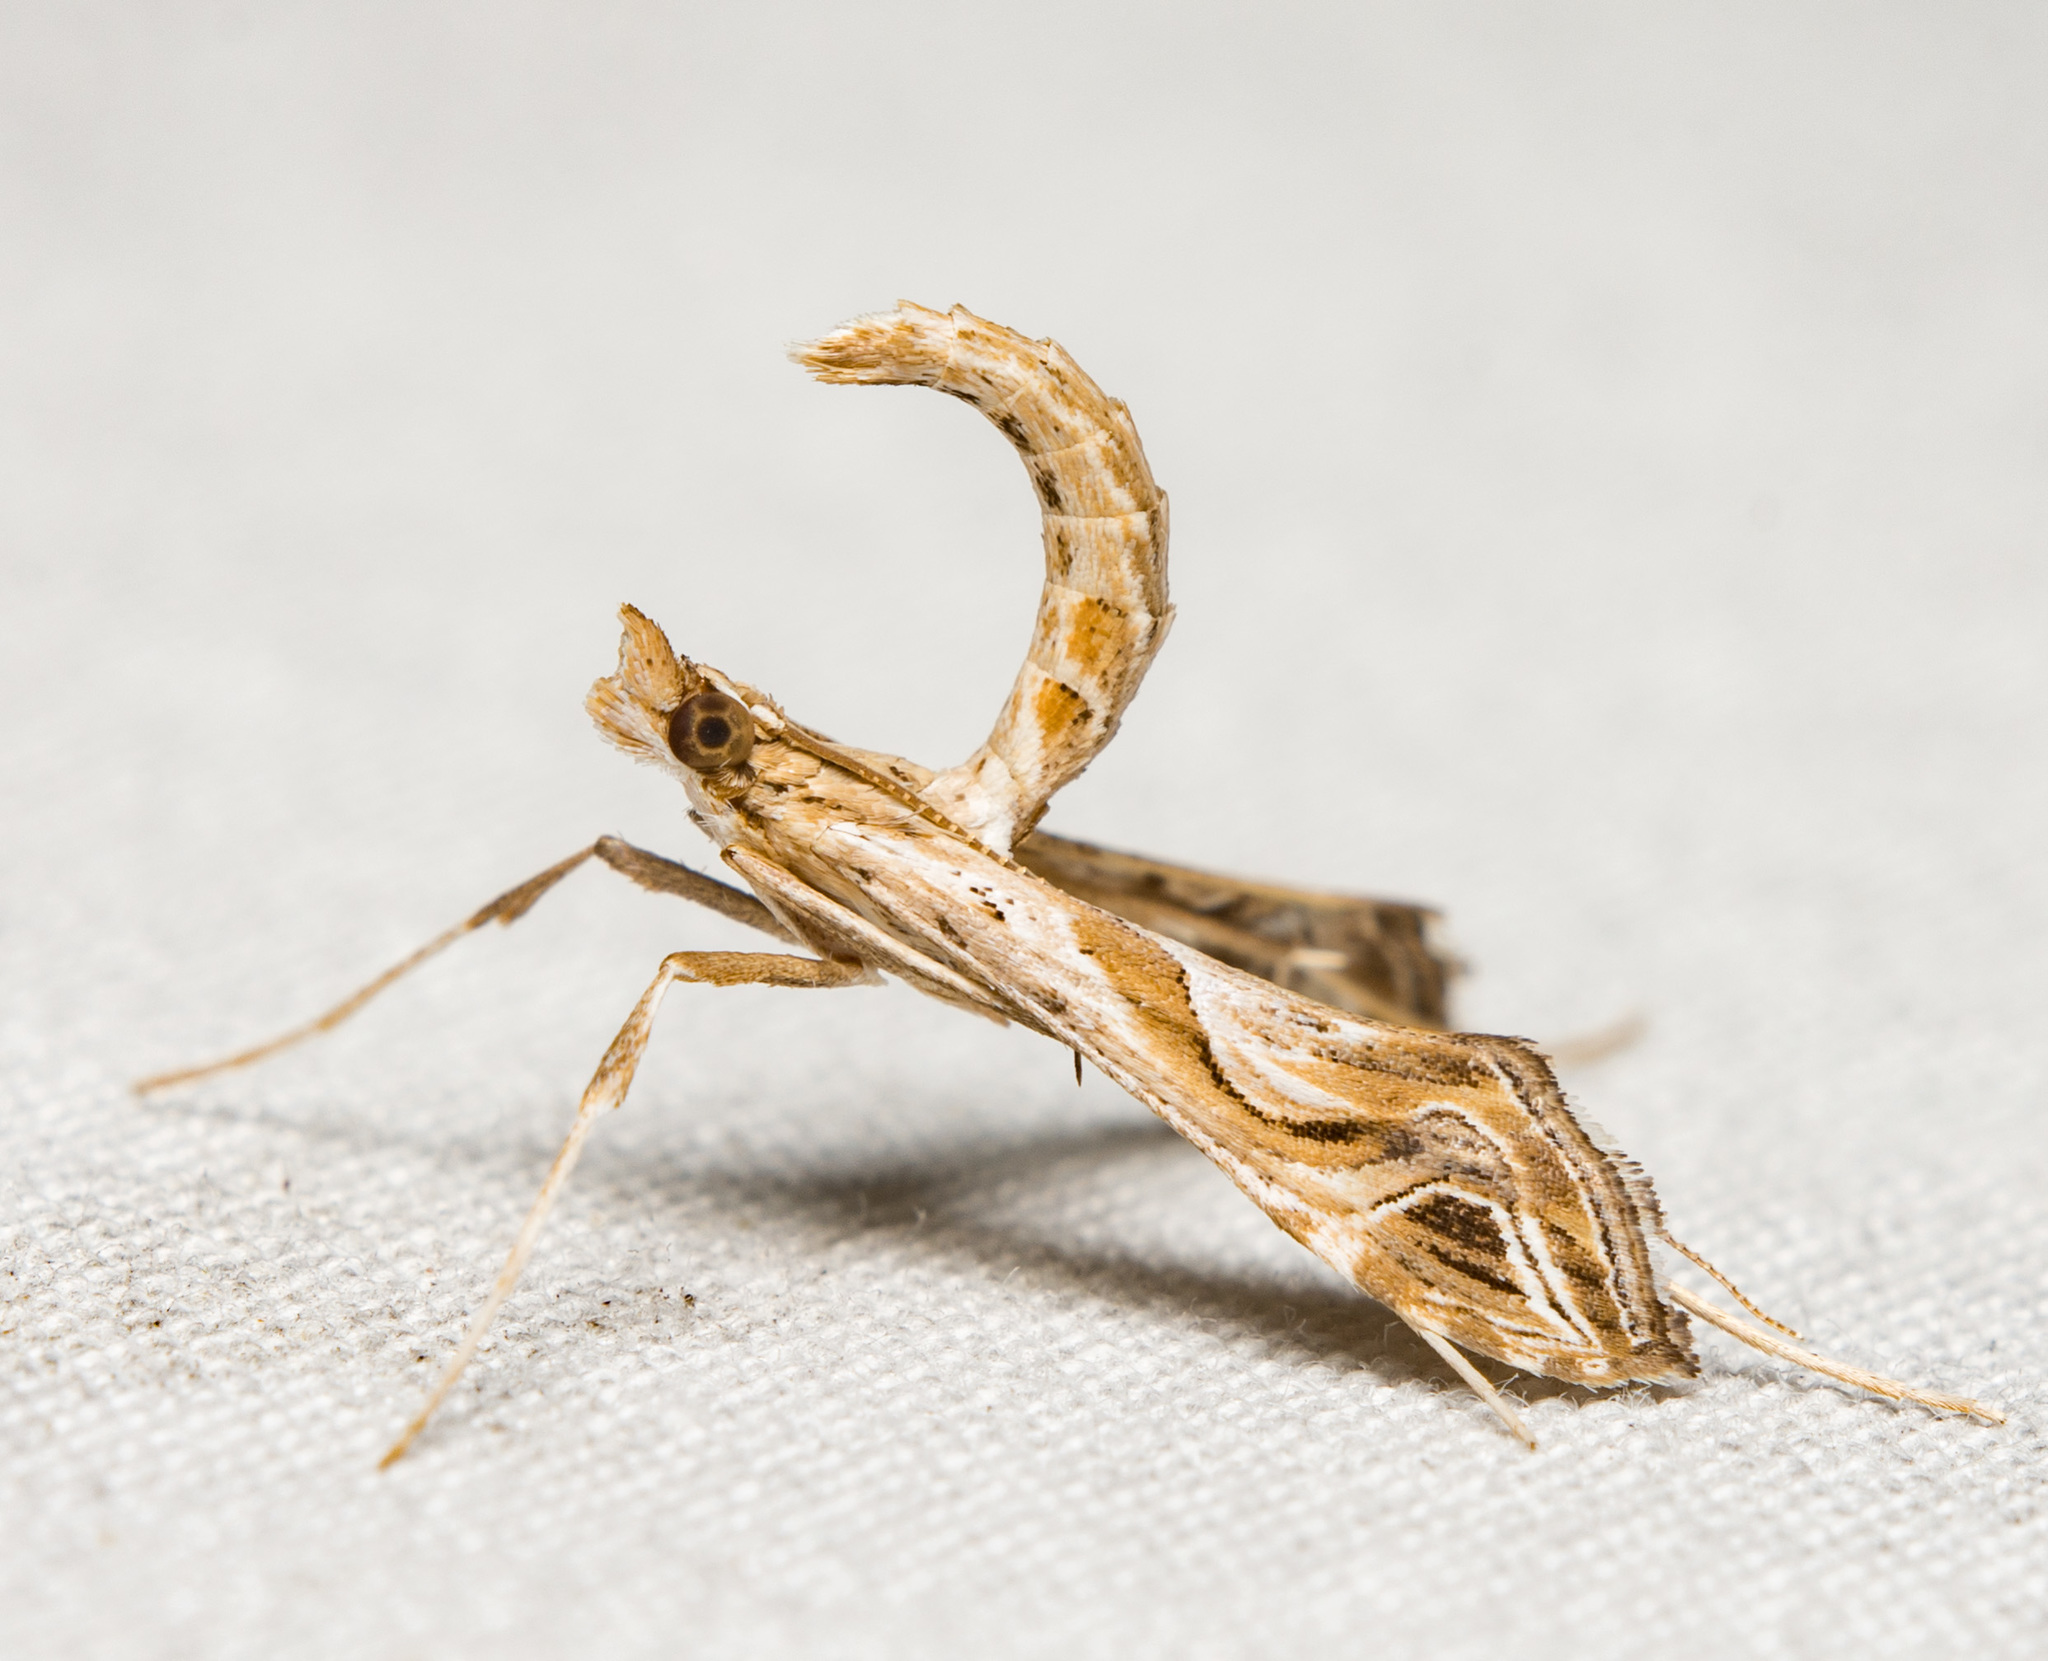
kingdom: Animalia
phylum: Arthropoda
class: Insecta
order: Lepidoptera
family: Crambidae
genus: Lineodes
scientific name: Lineodes integra
